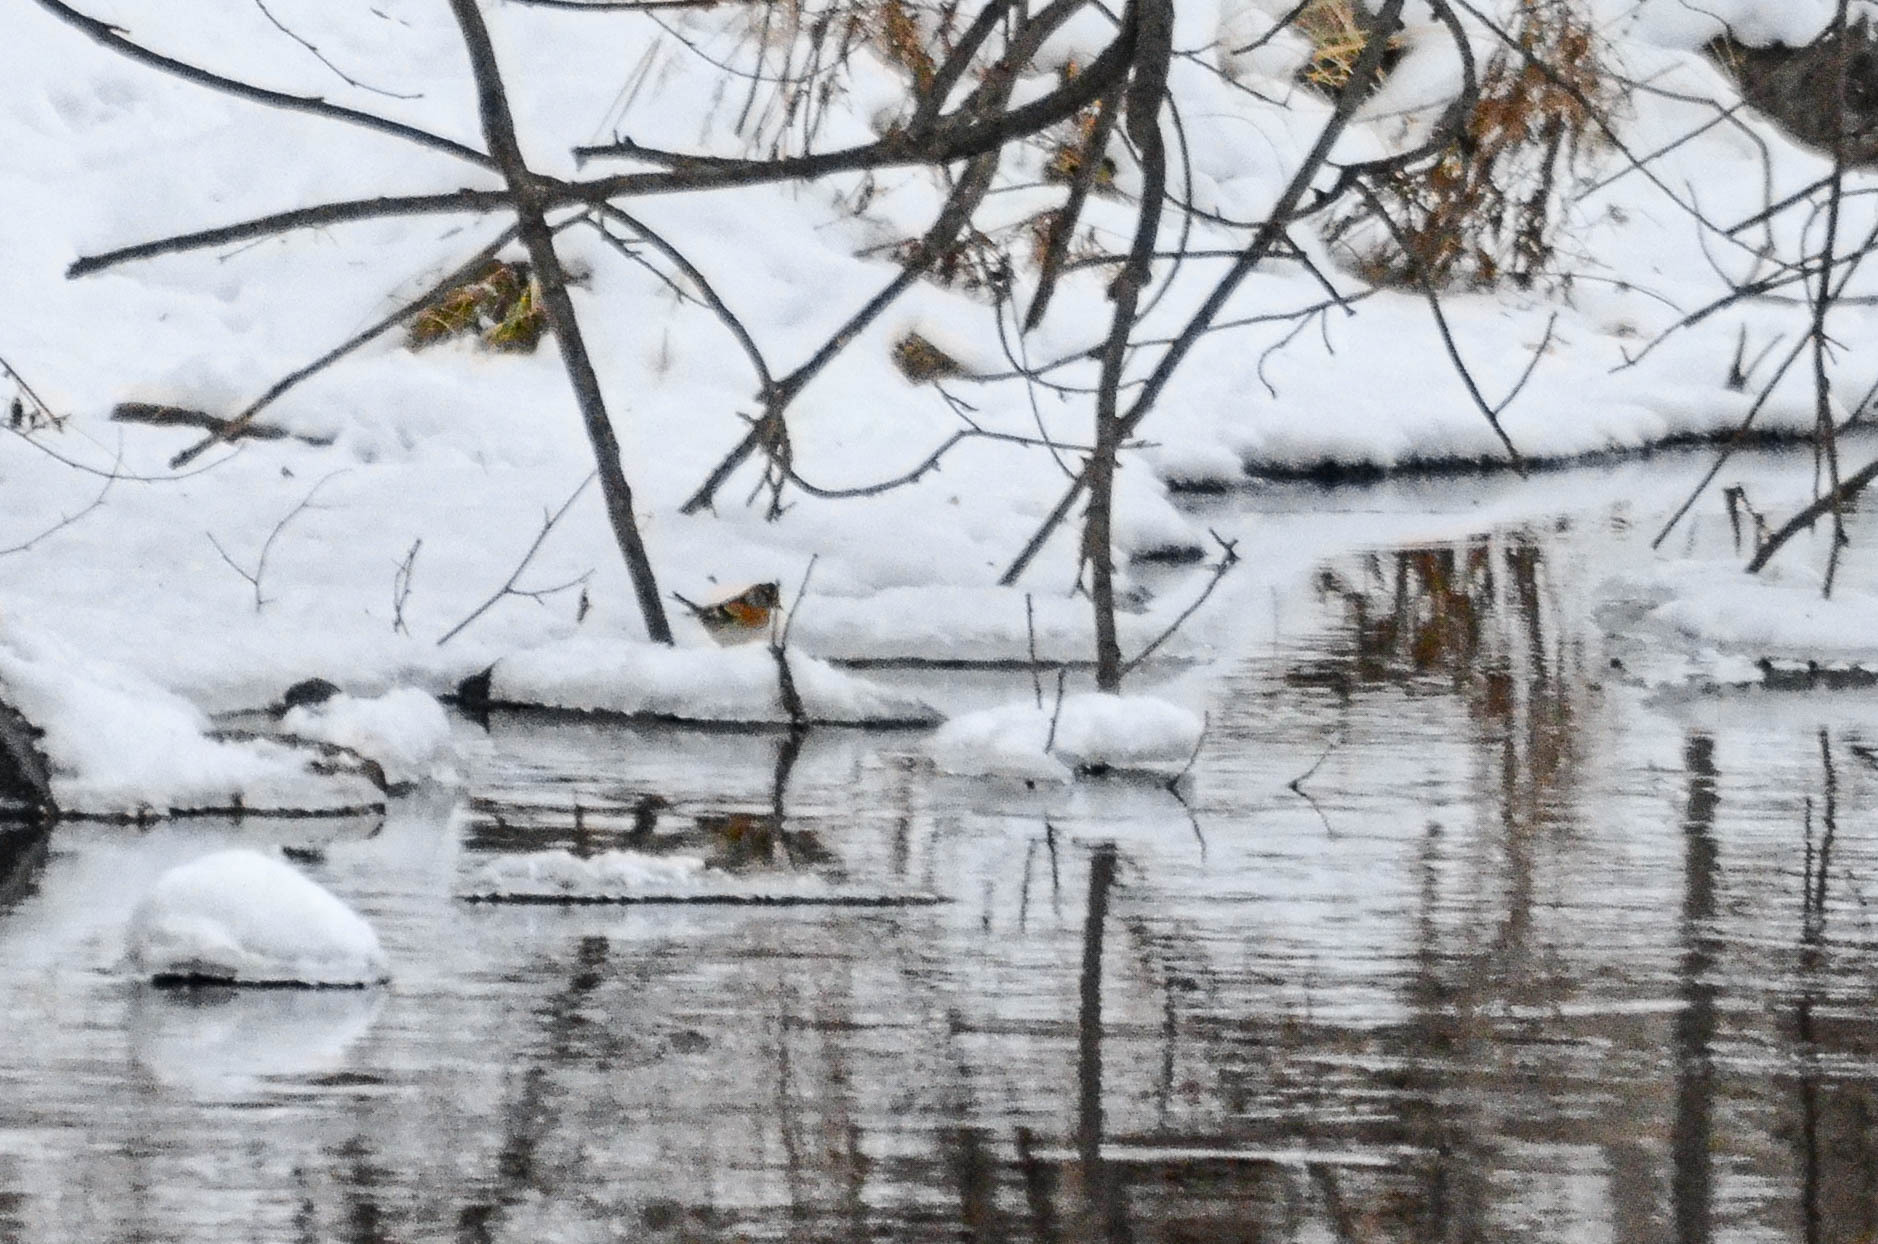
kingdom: Animalia
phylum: Chordata
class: Aves
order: Passeriformes
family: Fringillidae
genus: Fringilla
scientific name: Fringilla montifringilla
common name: Brambling
